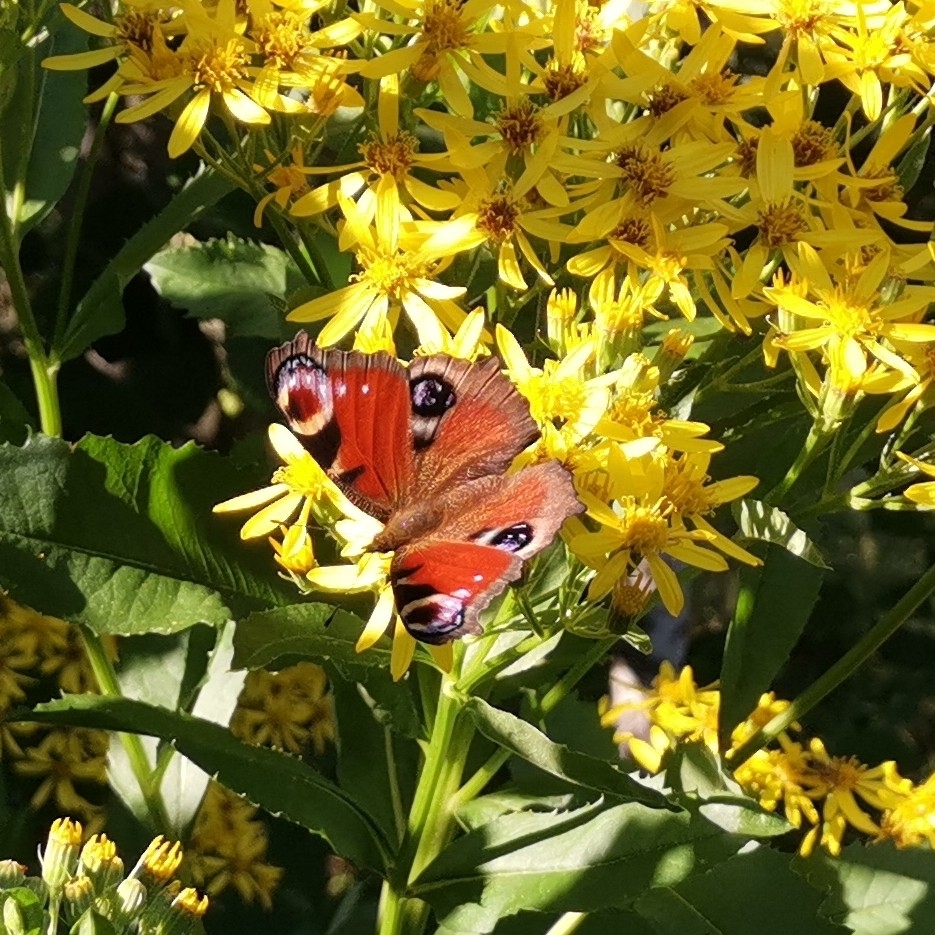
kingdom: Animalia
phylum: Arthropoda
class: Insecta
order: Lepidoptera
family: Nymphalidae
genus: Aglais
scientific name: Aglais io
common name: Peacock
